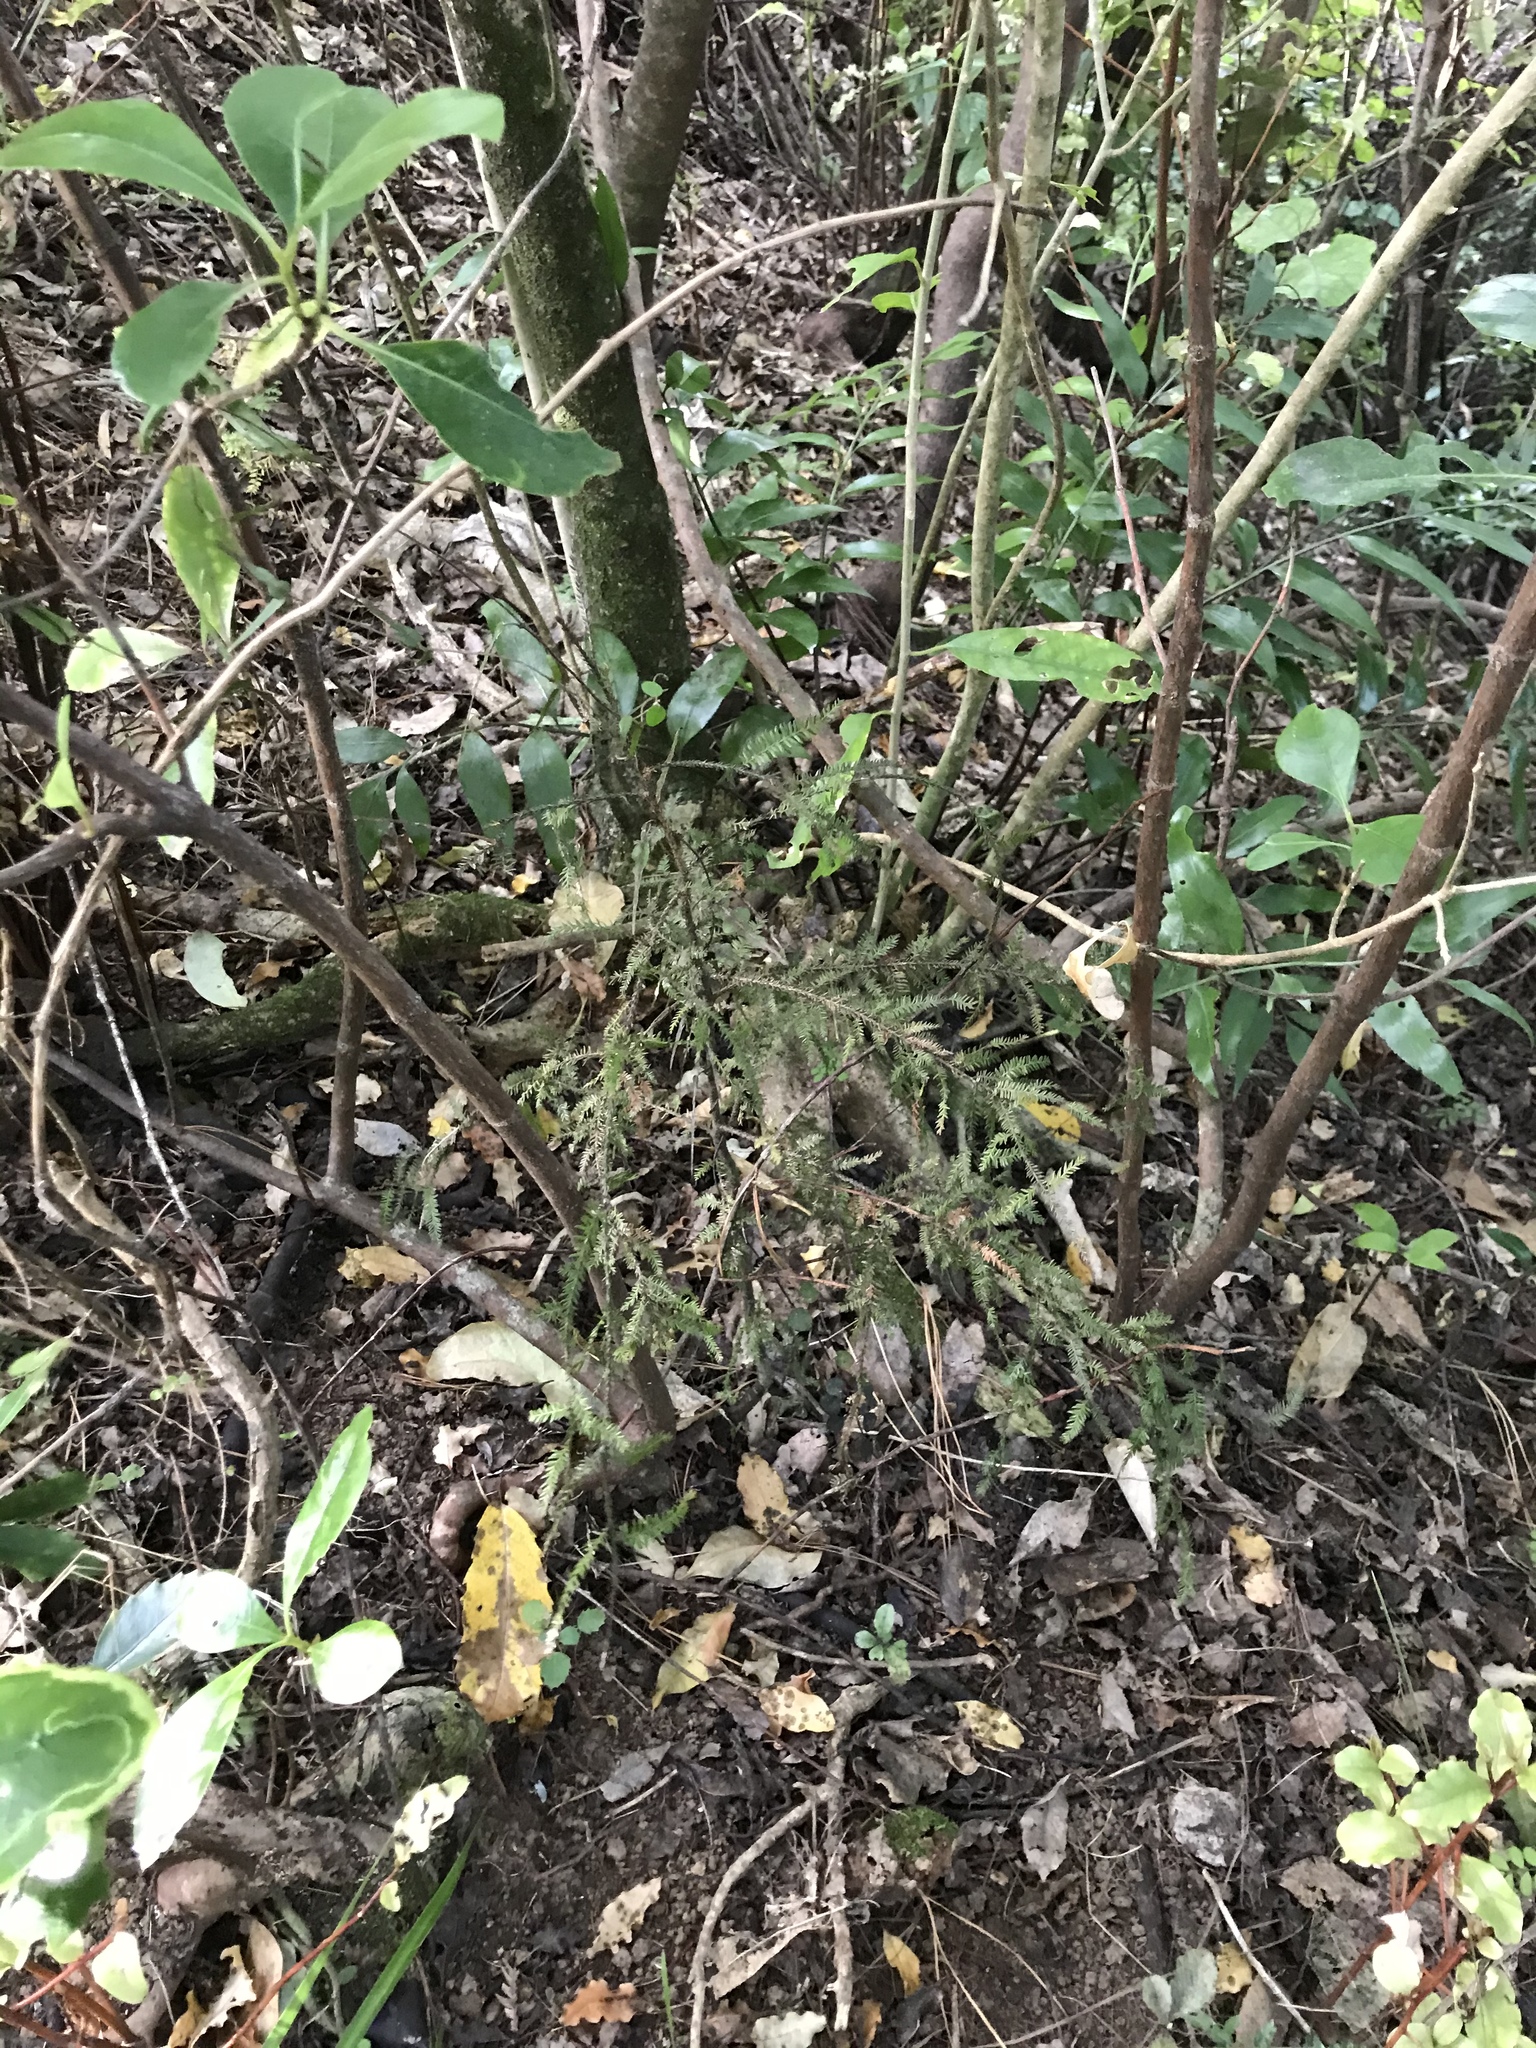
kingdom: Plantae
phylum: Tracheophyta
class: Pinopsida
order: Pinales
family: Podocarpaceae
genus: Dacrycarpus
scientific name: Dacrycarpus dacrydioides
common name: White pine
